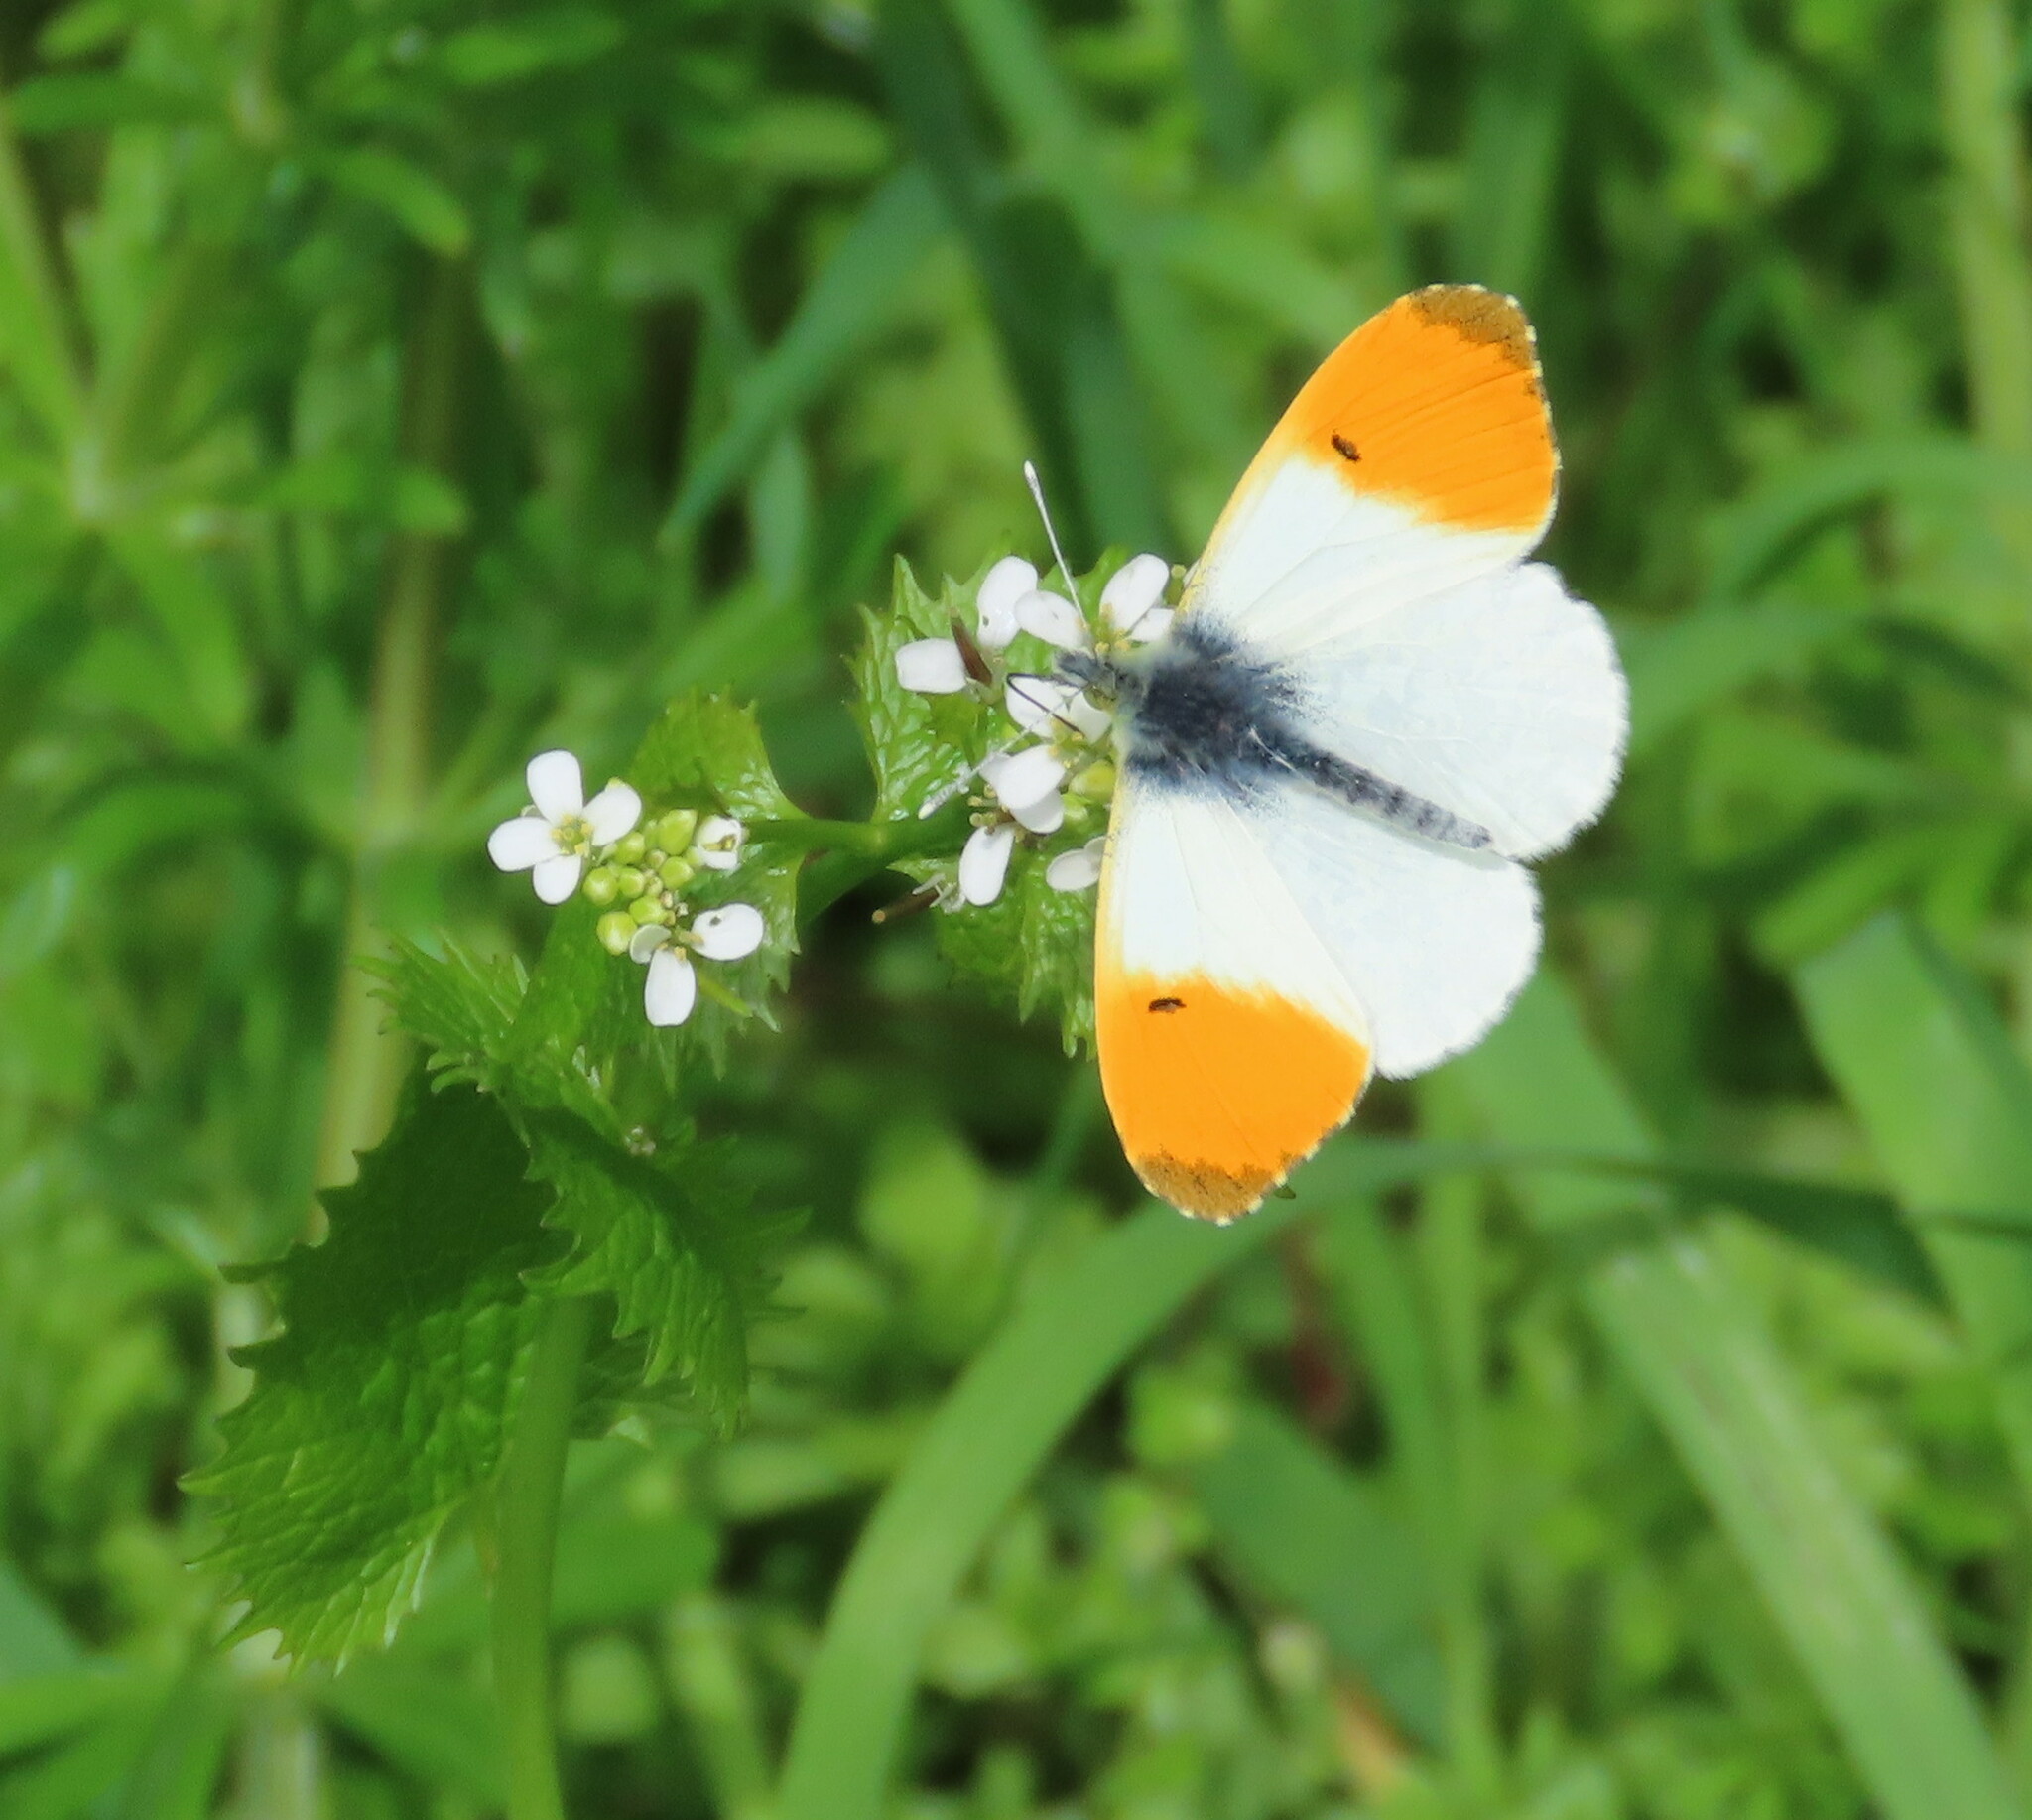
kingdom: Animalia
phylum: Arthropoda
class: Insecta
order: Lepidoptera
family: Pieridae
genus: Anthocharis
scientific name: Anthocharis cardamines
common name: Orange-tip
